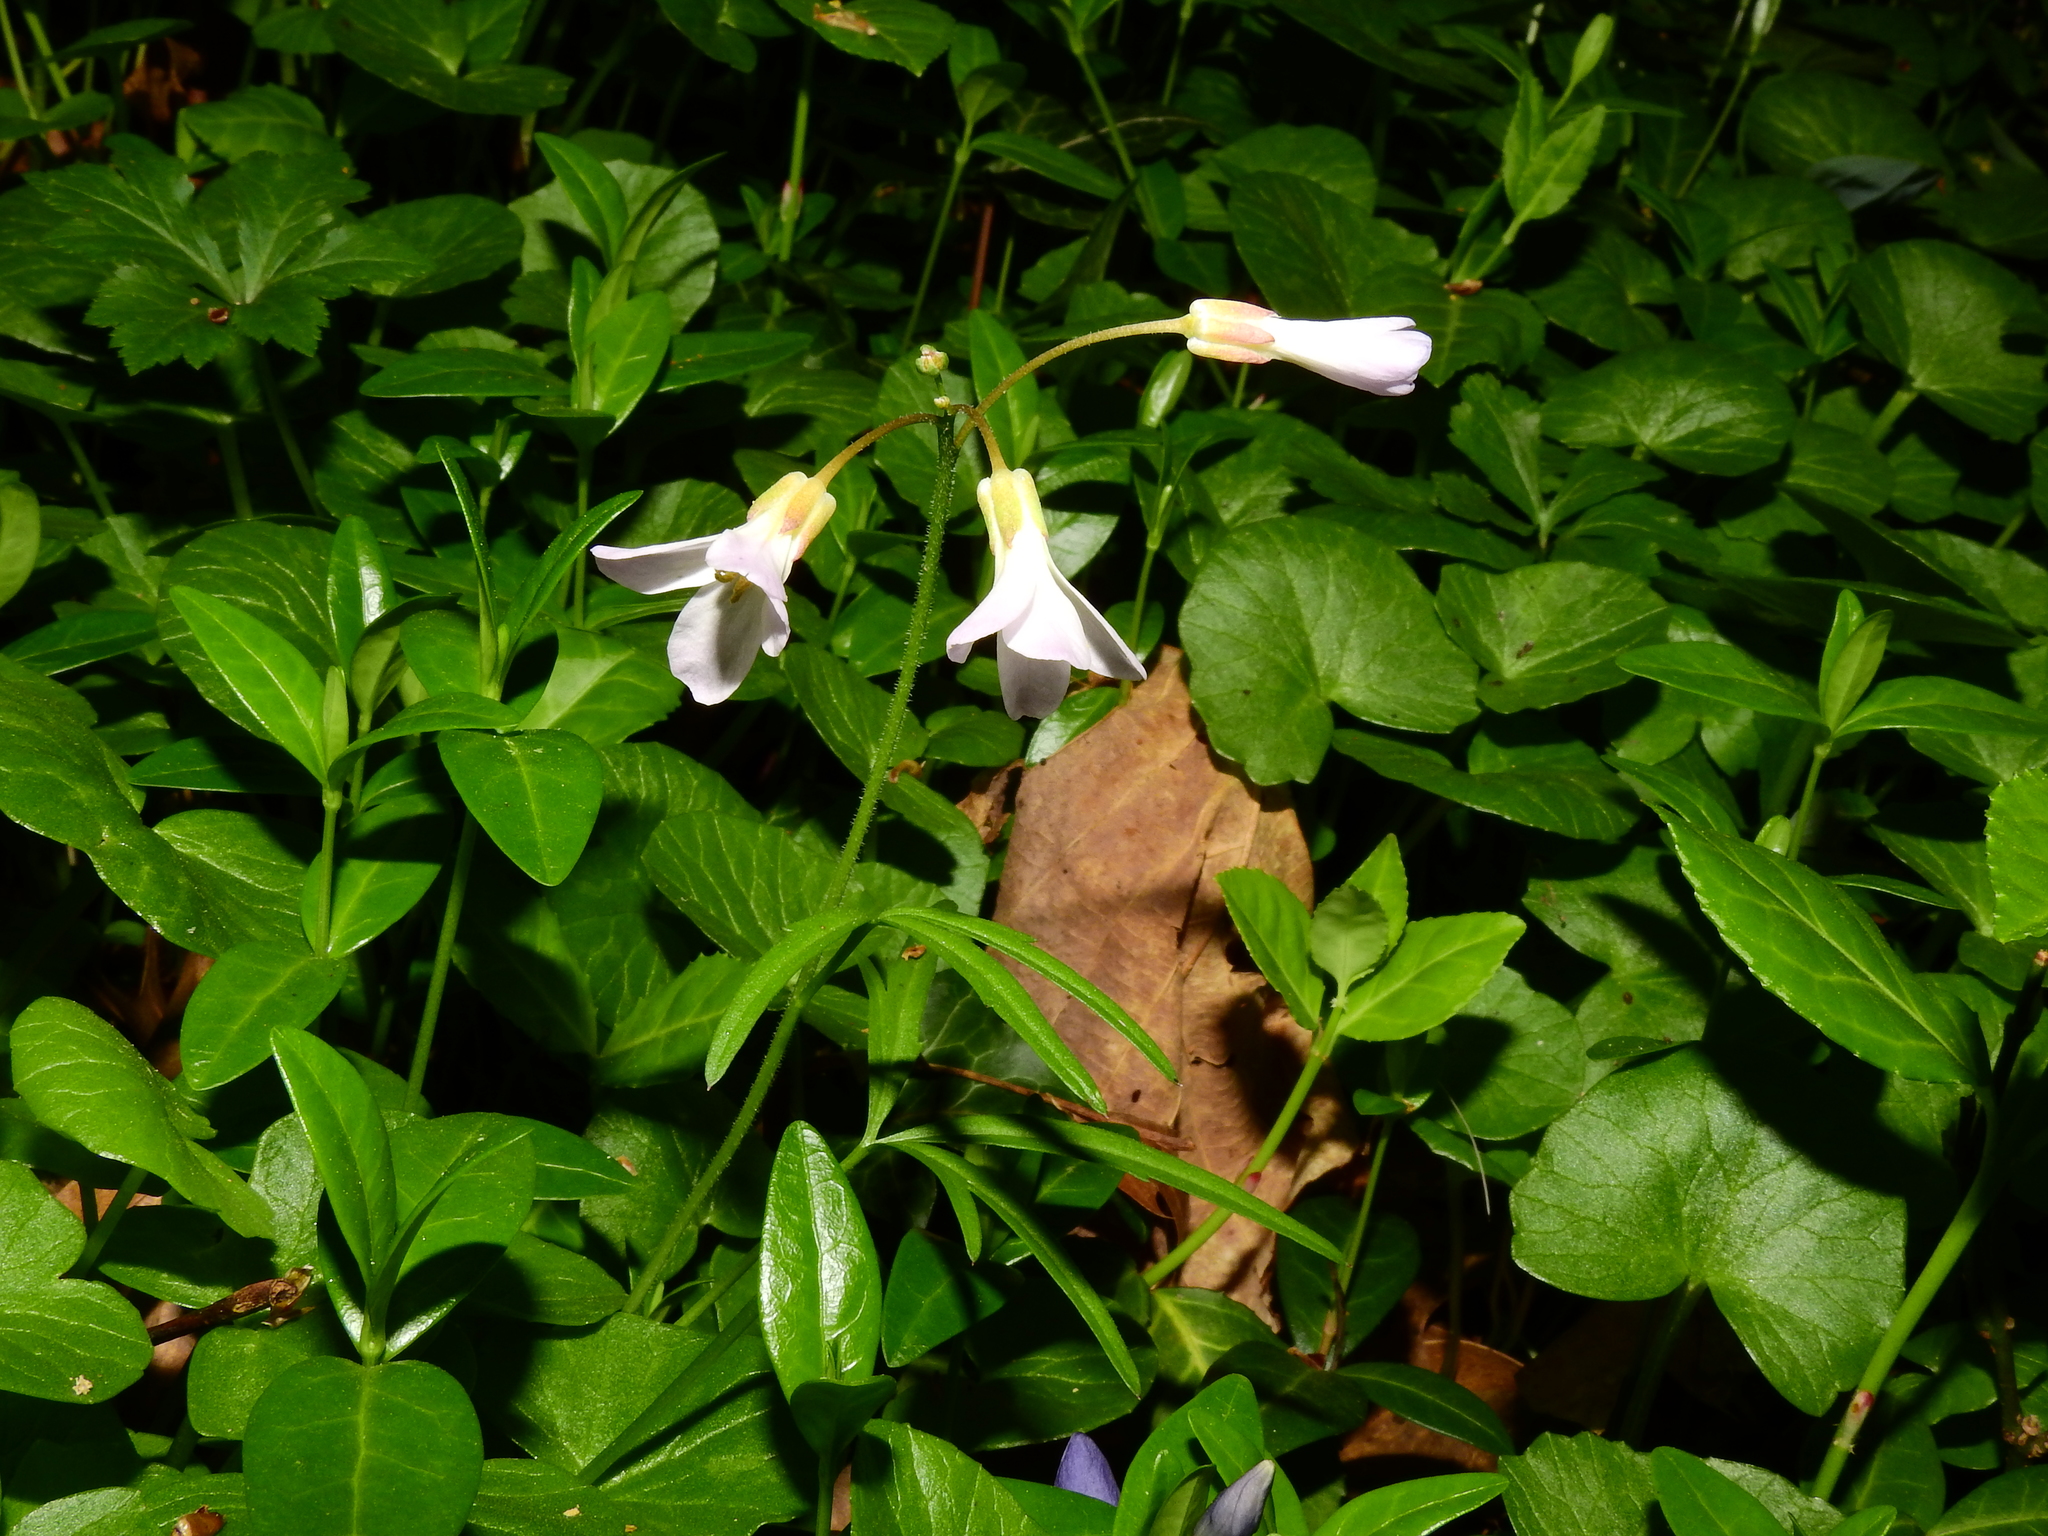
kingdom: Plantae
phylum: Tracheophyta
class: Magnoliopsida
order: Brassicales
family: Brassicaceae
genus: Cardamine
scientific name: Cardamine concatenata
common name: Cut-leaf toothcup
